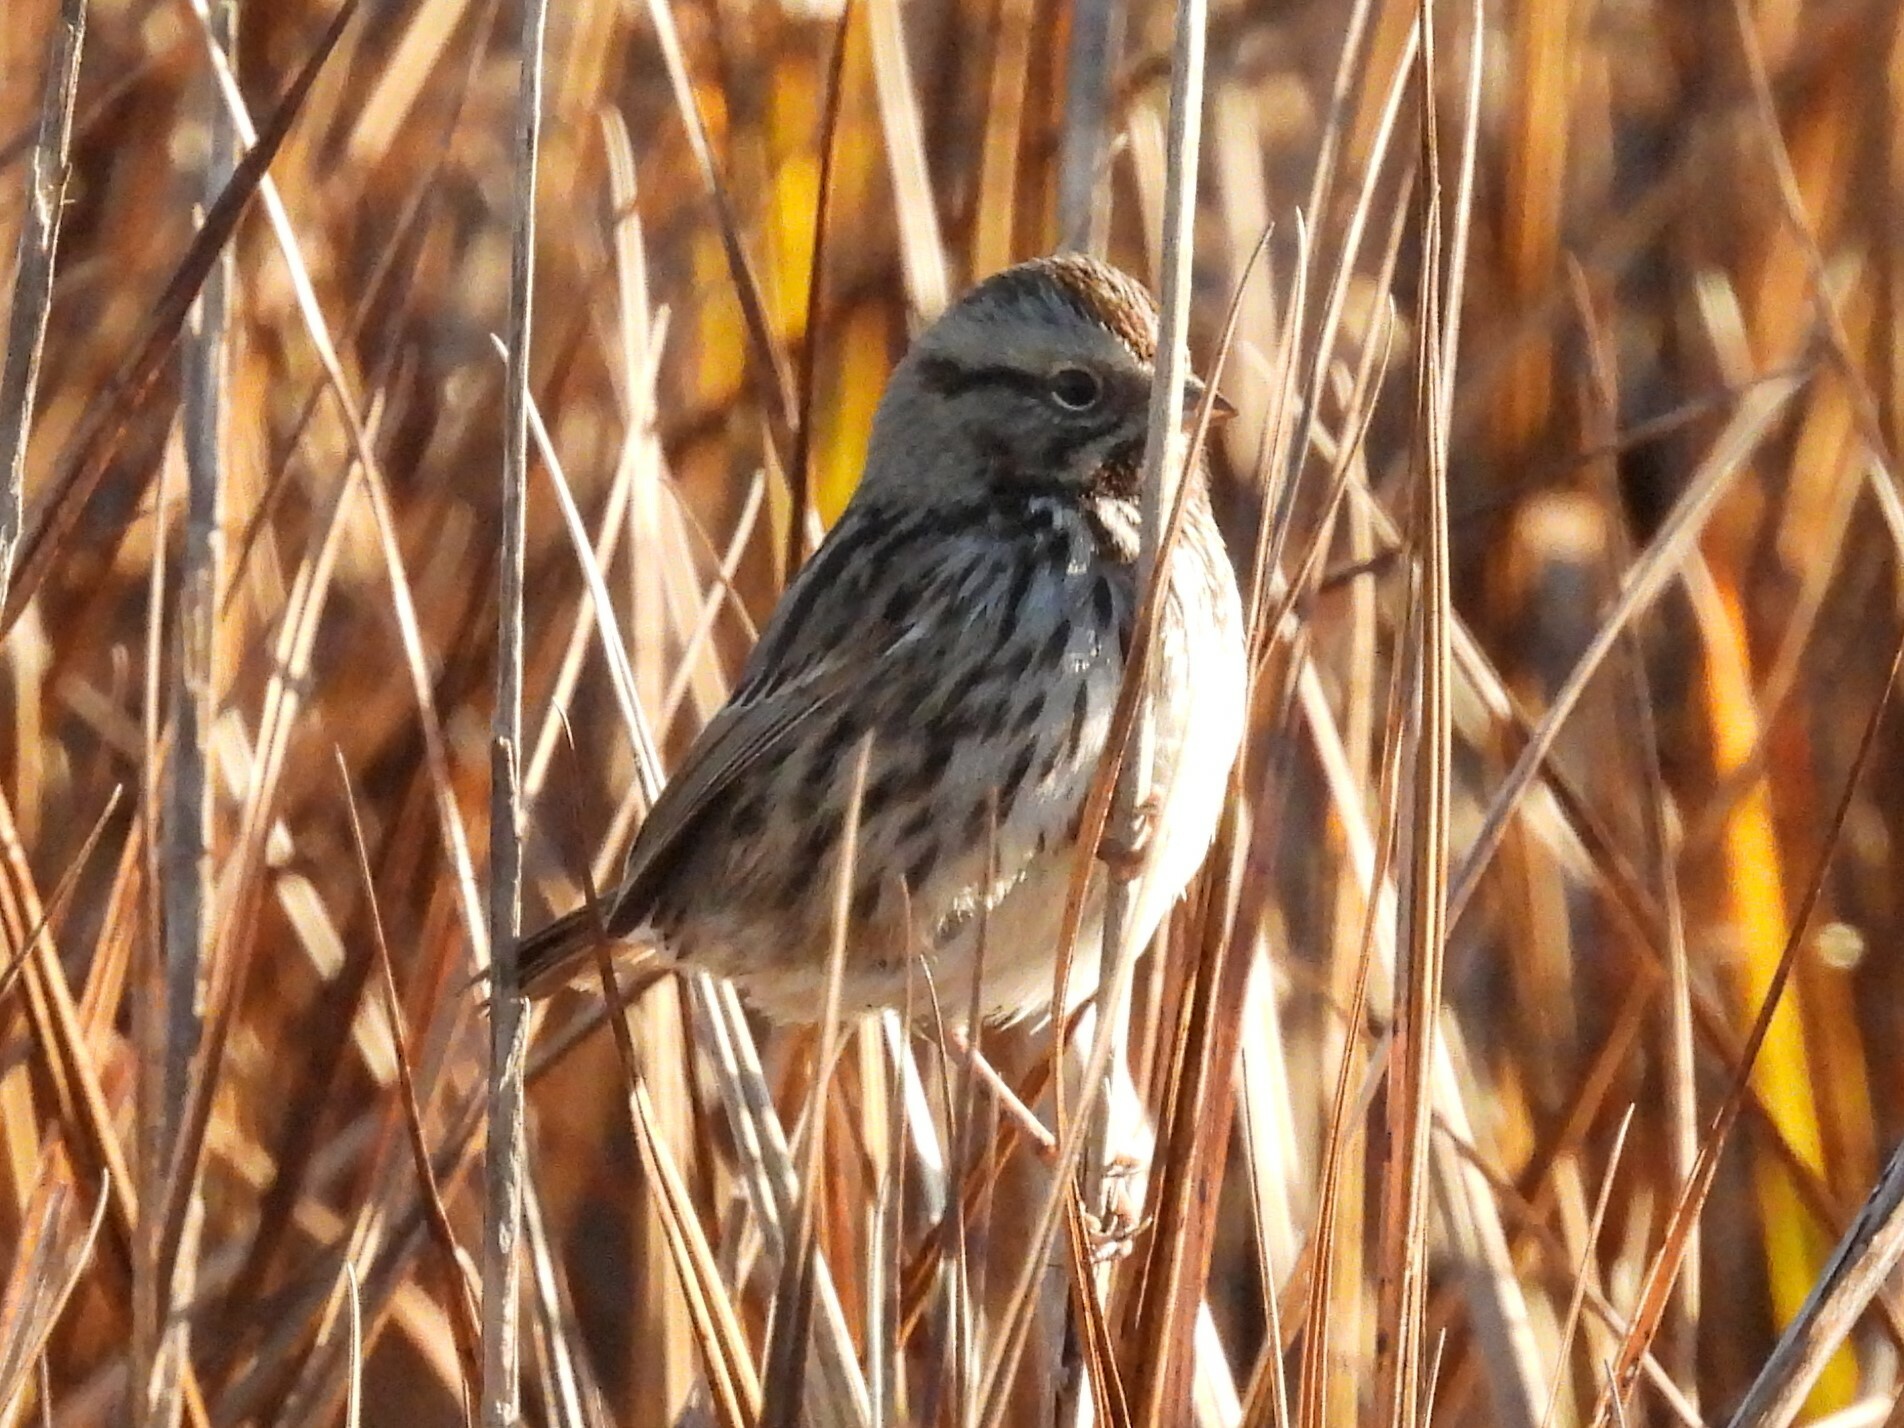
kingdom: Animalia
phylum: Chordata
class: Aves
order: Passeriformes
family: Passerellidae
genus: Melospiza
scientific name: Melospiza melodia
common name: Song sparrow
